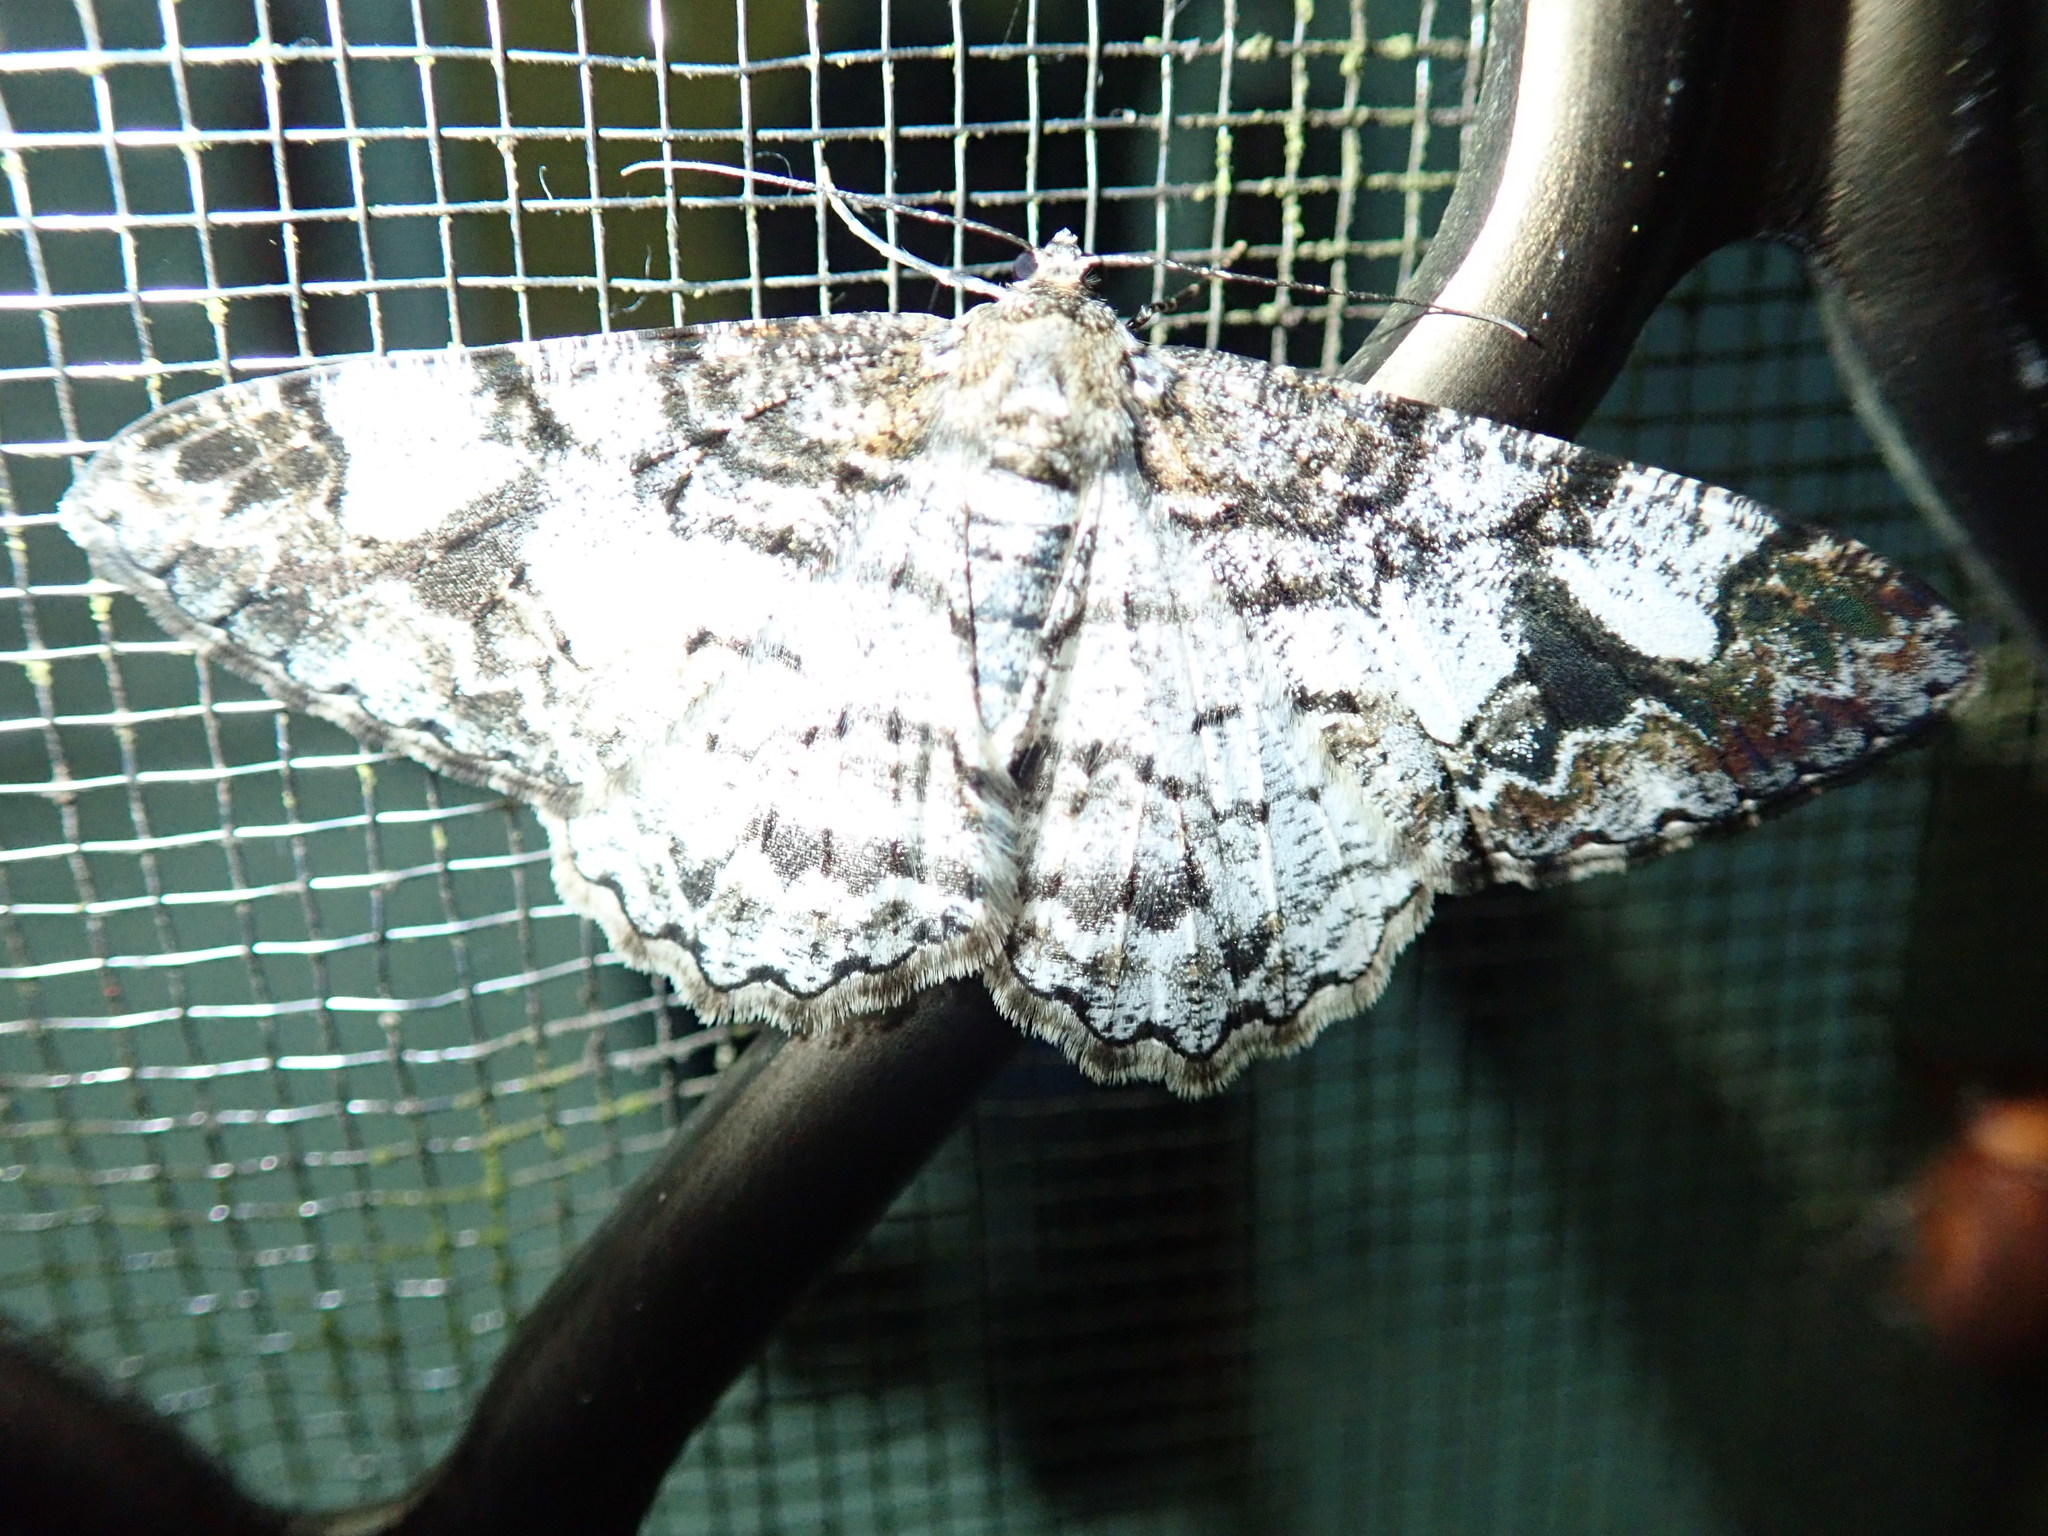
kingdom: Animalia
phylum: Arthropoda
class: Insecta
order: Lepidoptera
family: Geometridae
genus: Alcis
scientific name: Alcis admissaria
